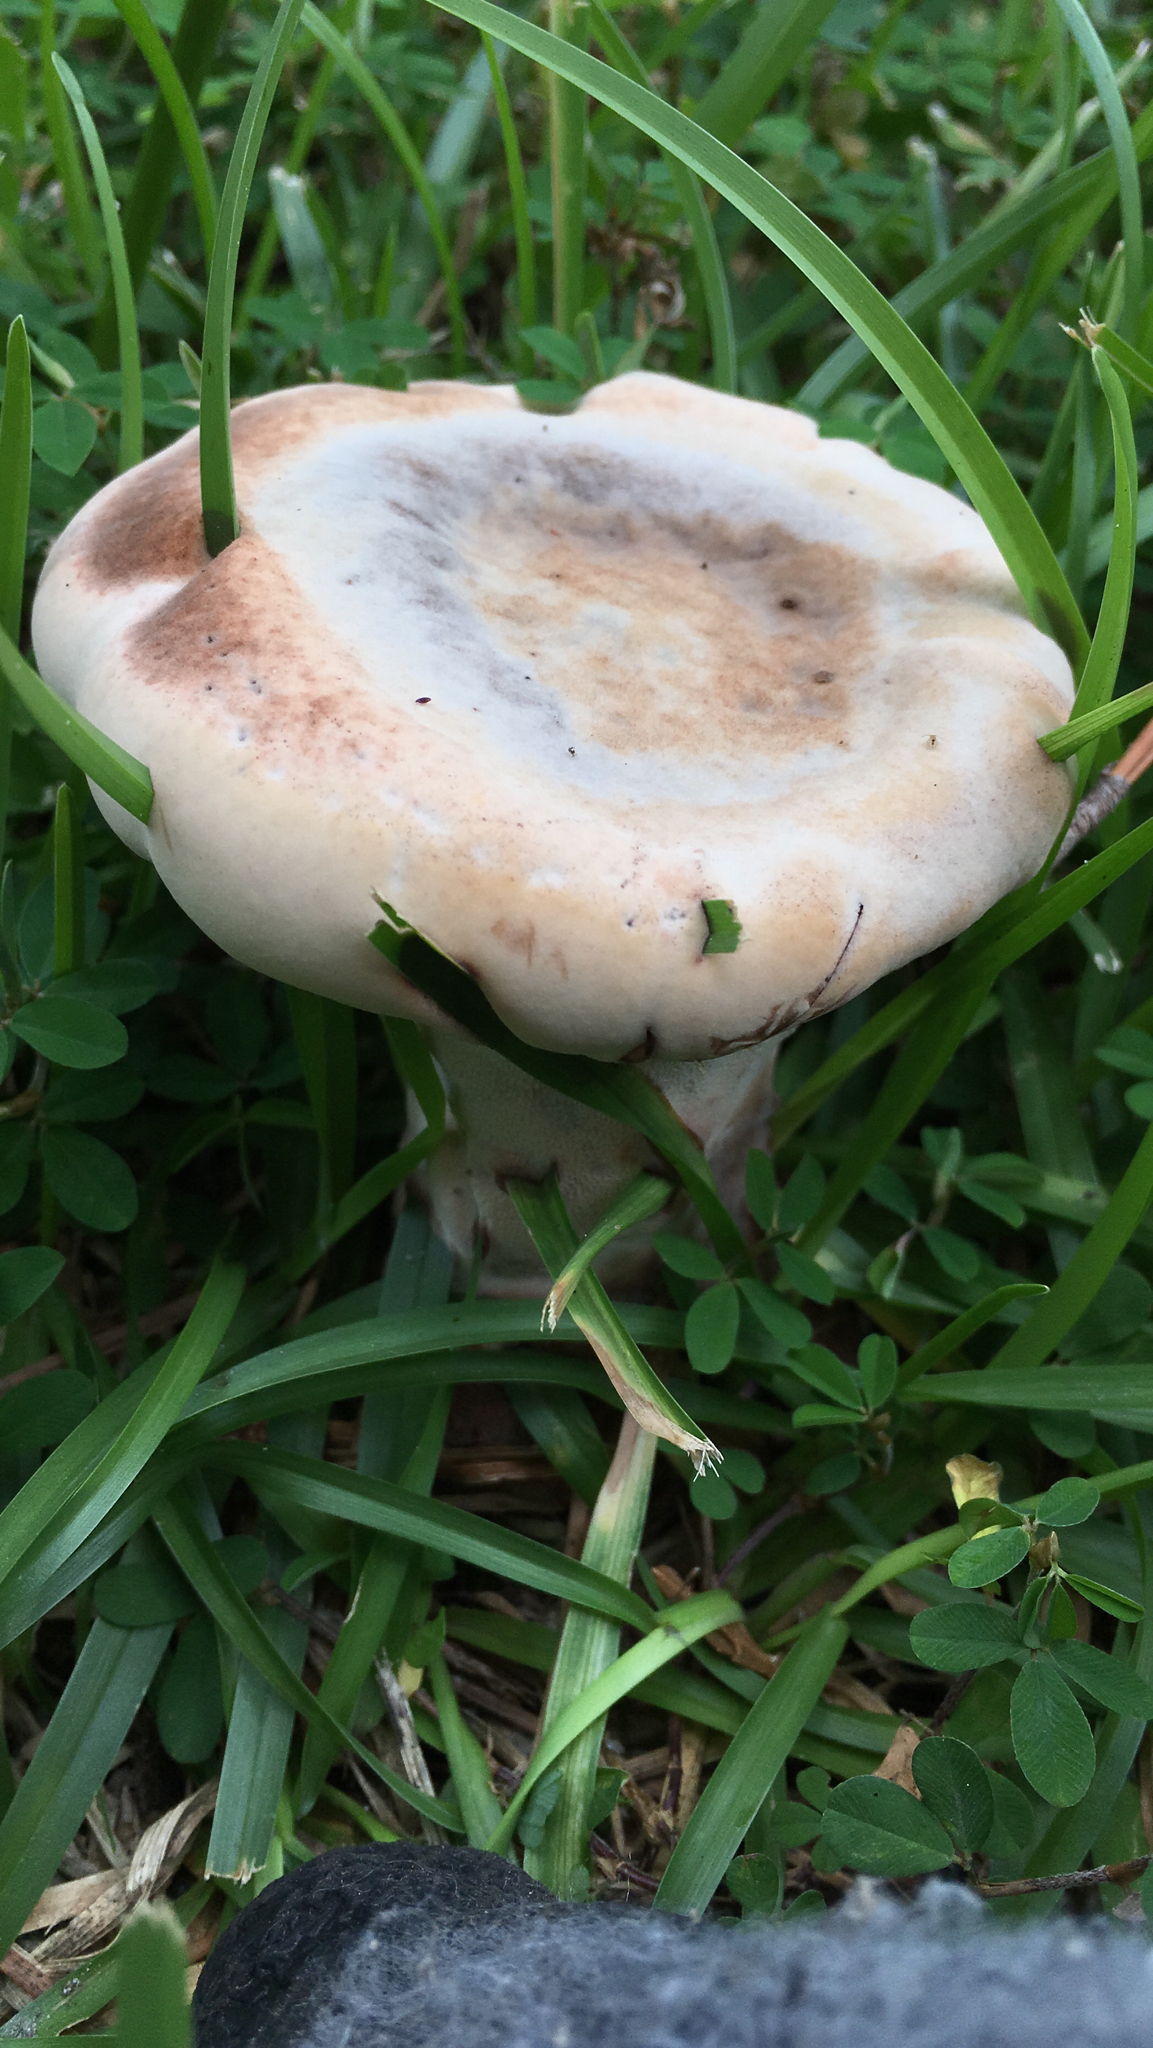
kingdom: Fungi
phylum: Basidiomycota
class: Agaricomycetes
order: Polyporales
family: Laetiporaceae
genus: Berkcurtia
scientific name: Berkcurtia persicina
